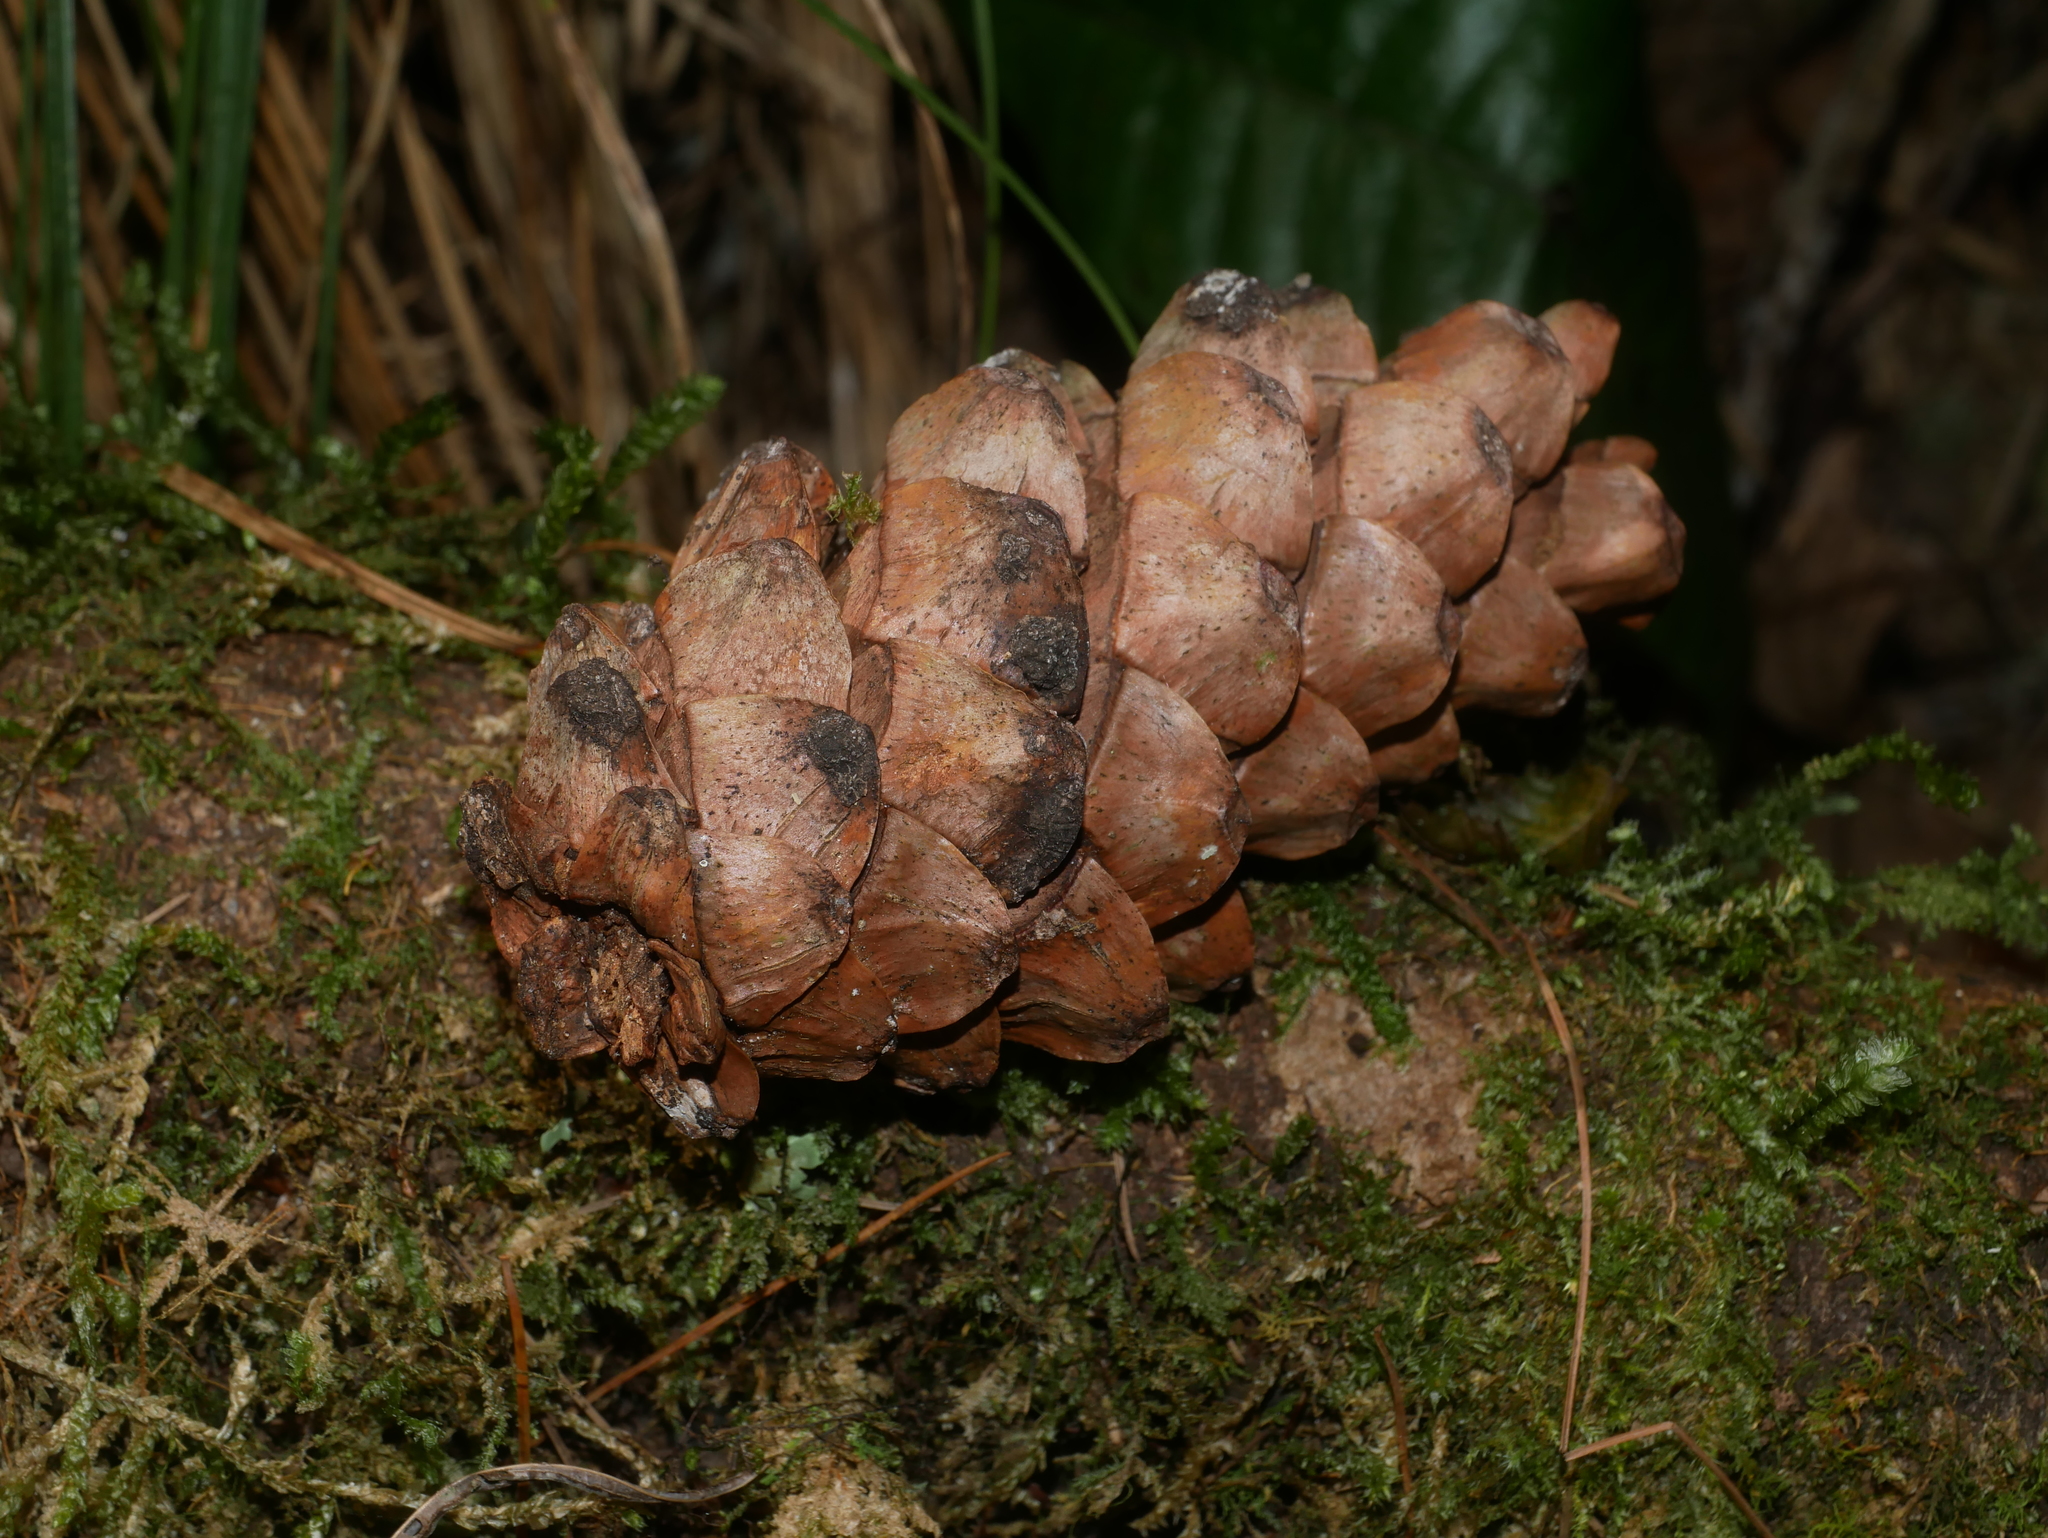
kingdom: Plantae
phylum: Tracheophyta
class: Pinopsida
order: Pinales
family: Pinaceae
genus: Pinus
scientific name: Pinus morrisonicola
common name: Taiwan white pine
